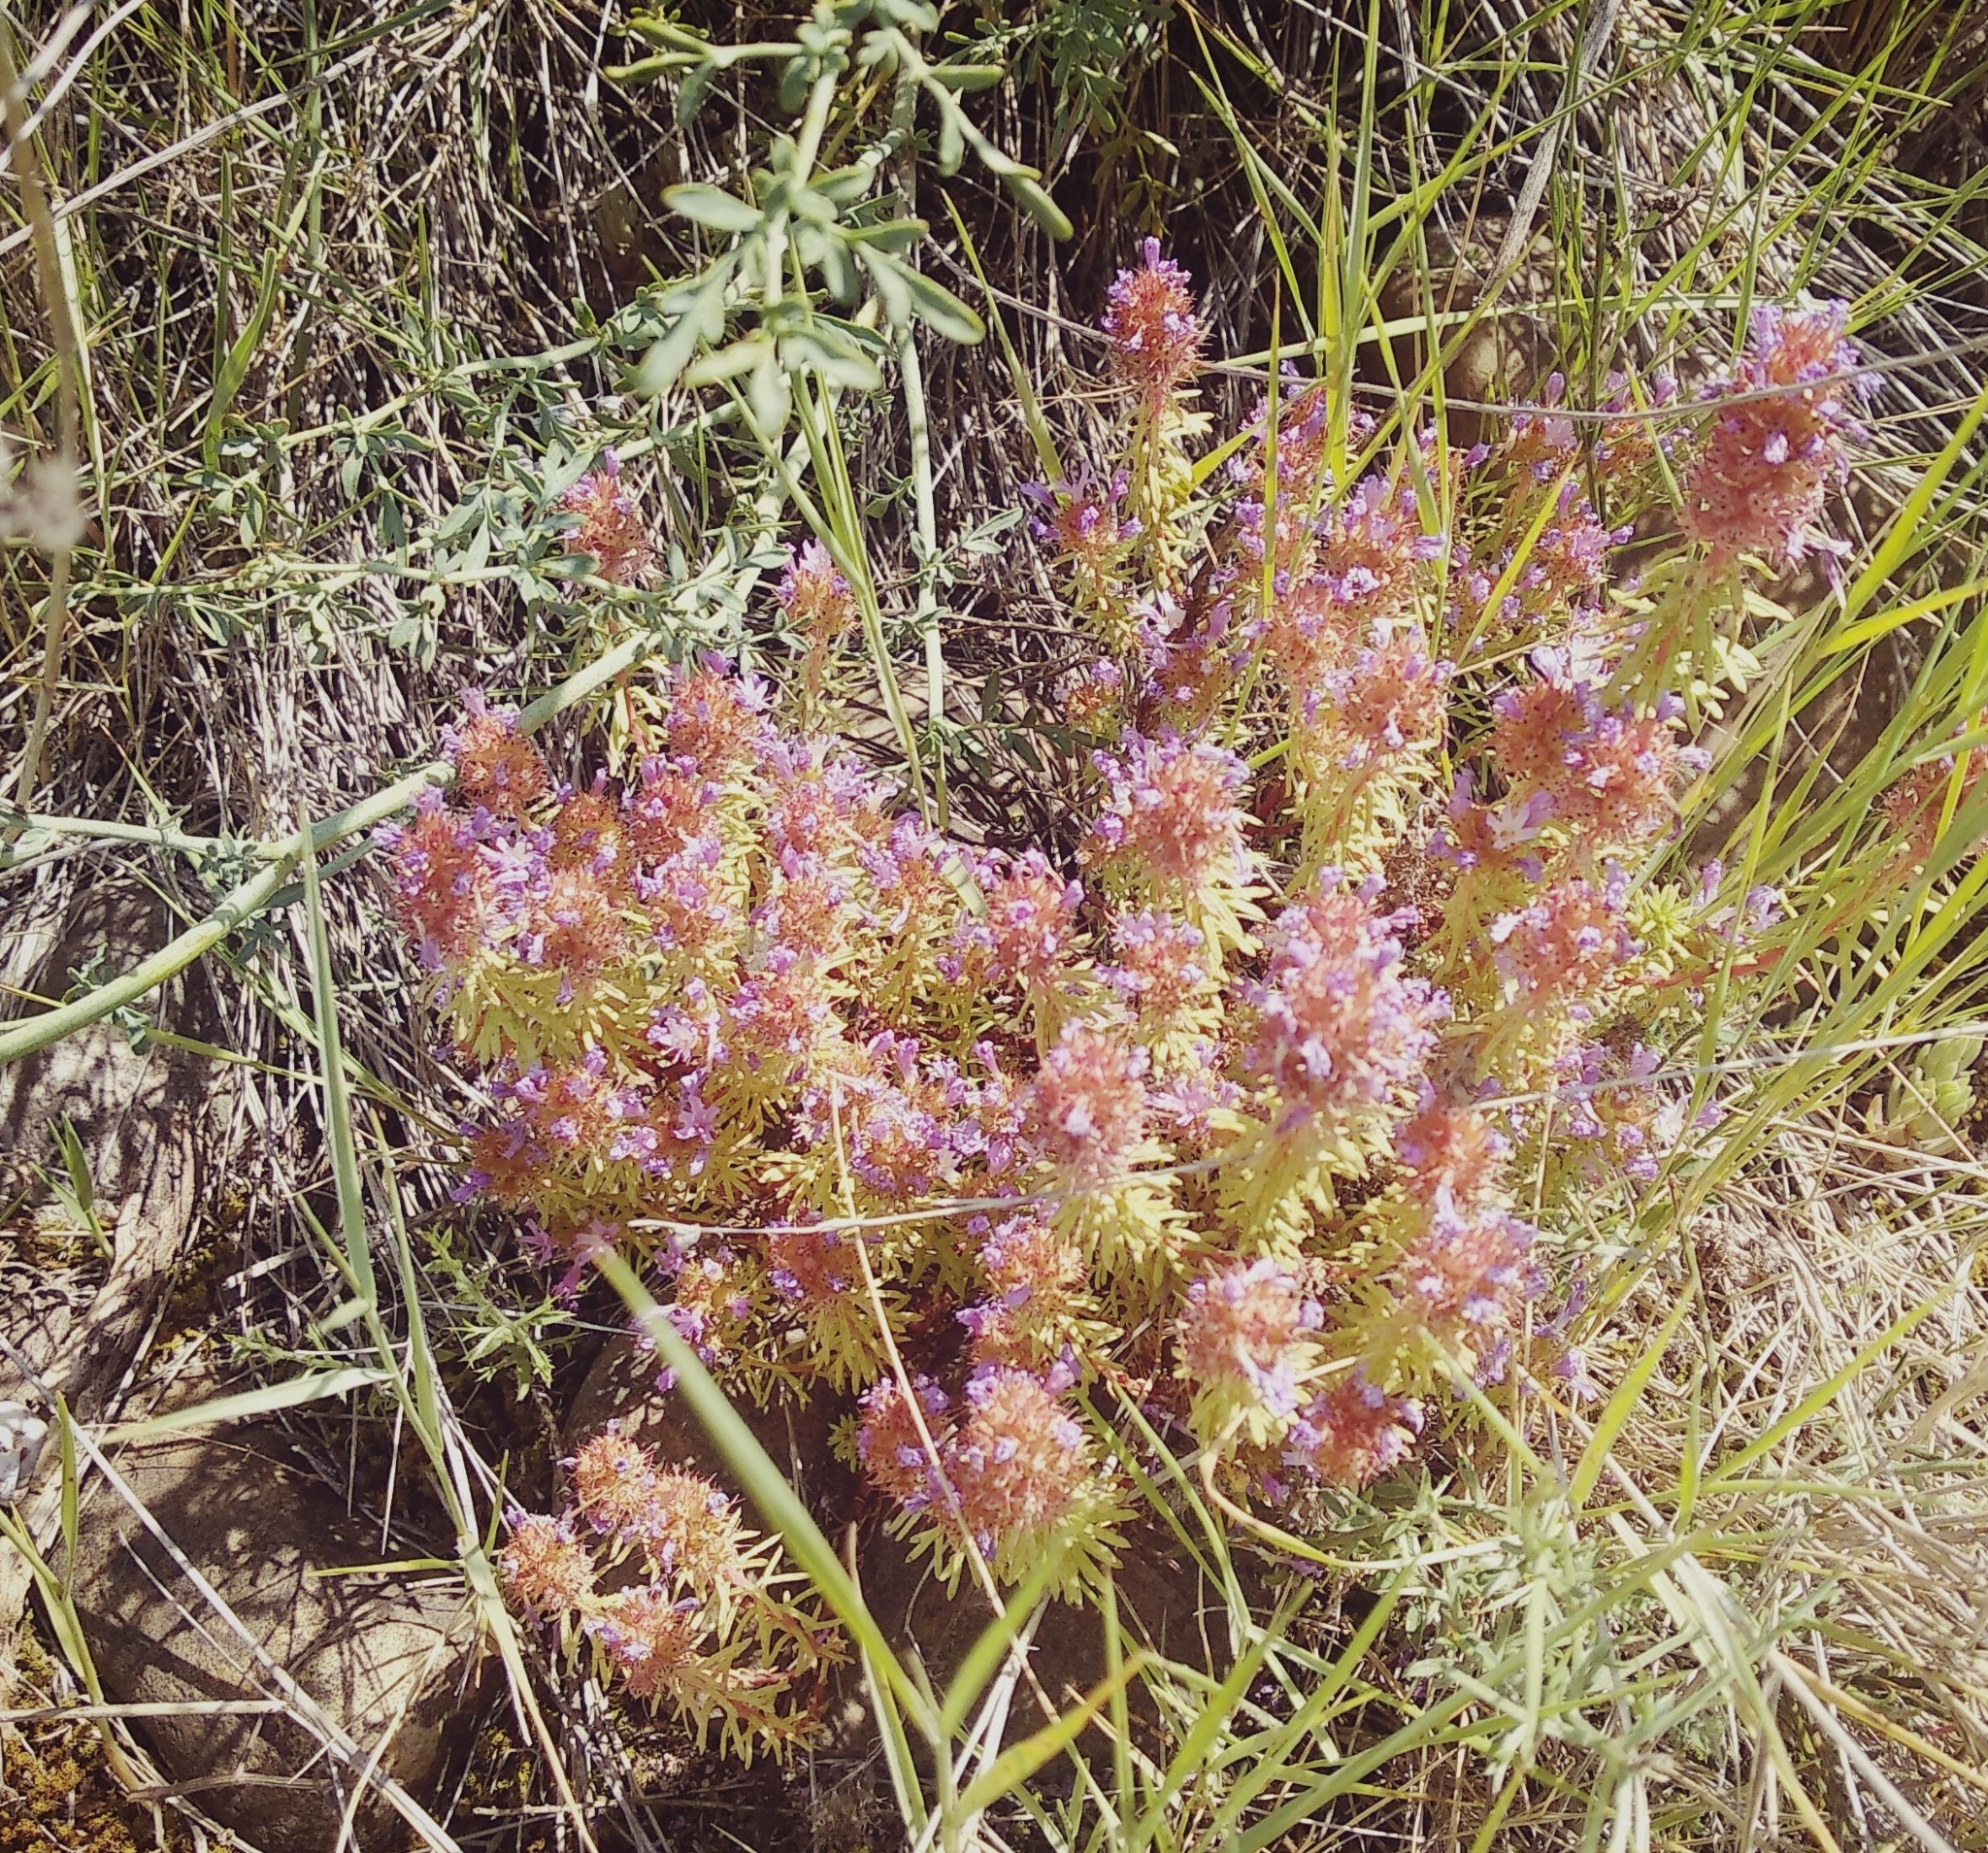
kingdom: Plantae
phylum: Tracheophyta
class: Magnoliopsida
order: Ericales
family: Primulaceae
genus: Coris
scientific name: Coris monspeliensis
